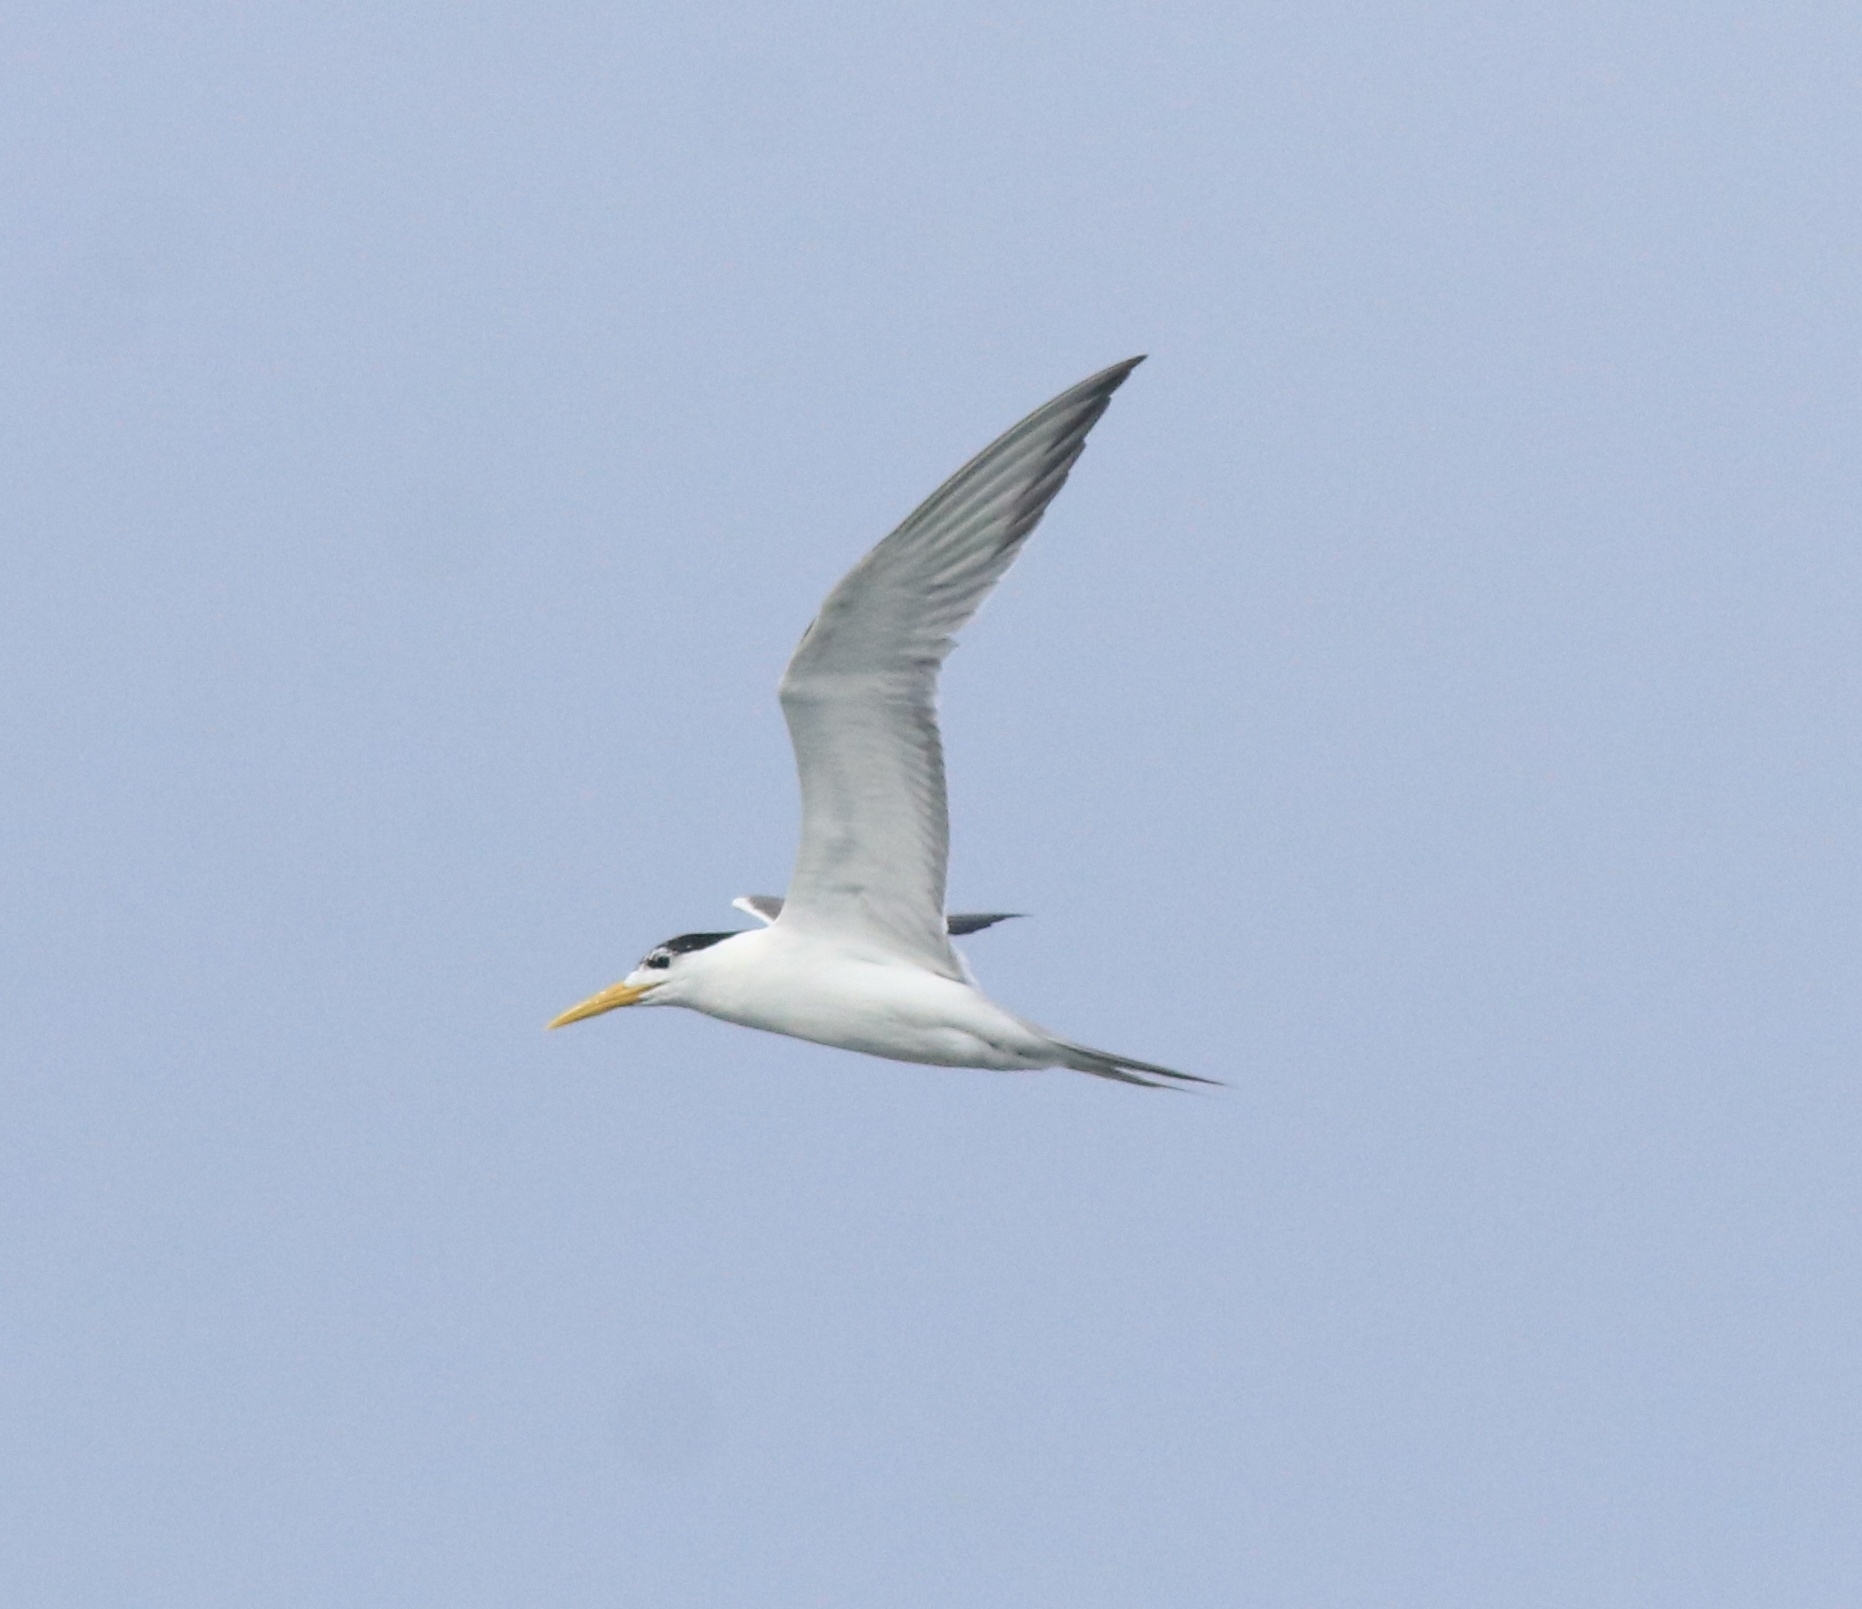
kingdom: Animalia
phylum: Chordata
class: Aves
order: Charadriiformes
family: Laridae
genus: Thalasseus
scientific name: Thalasseus bergii
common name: Greater crested tern
